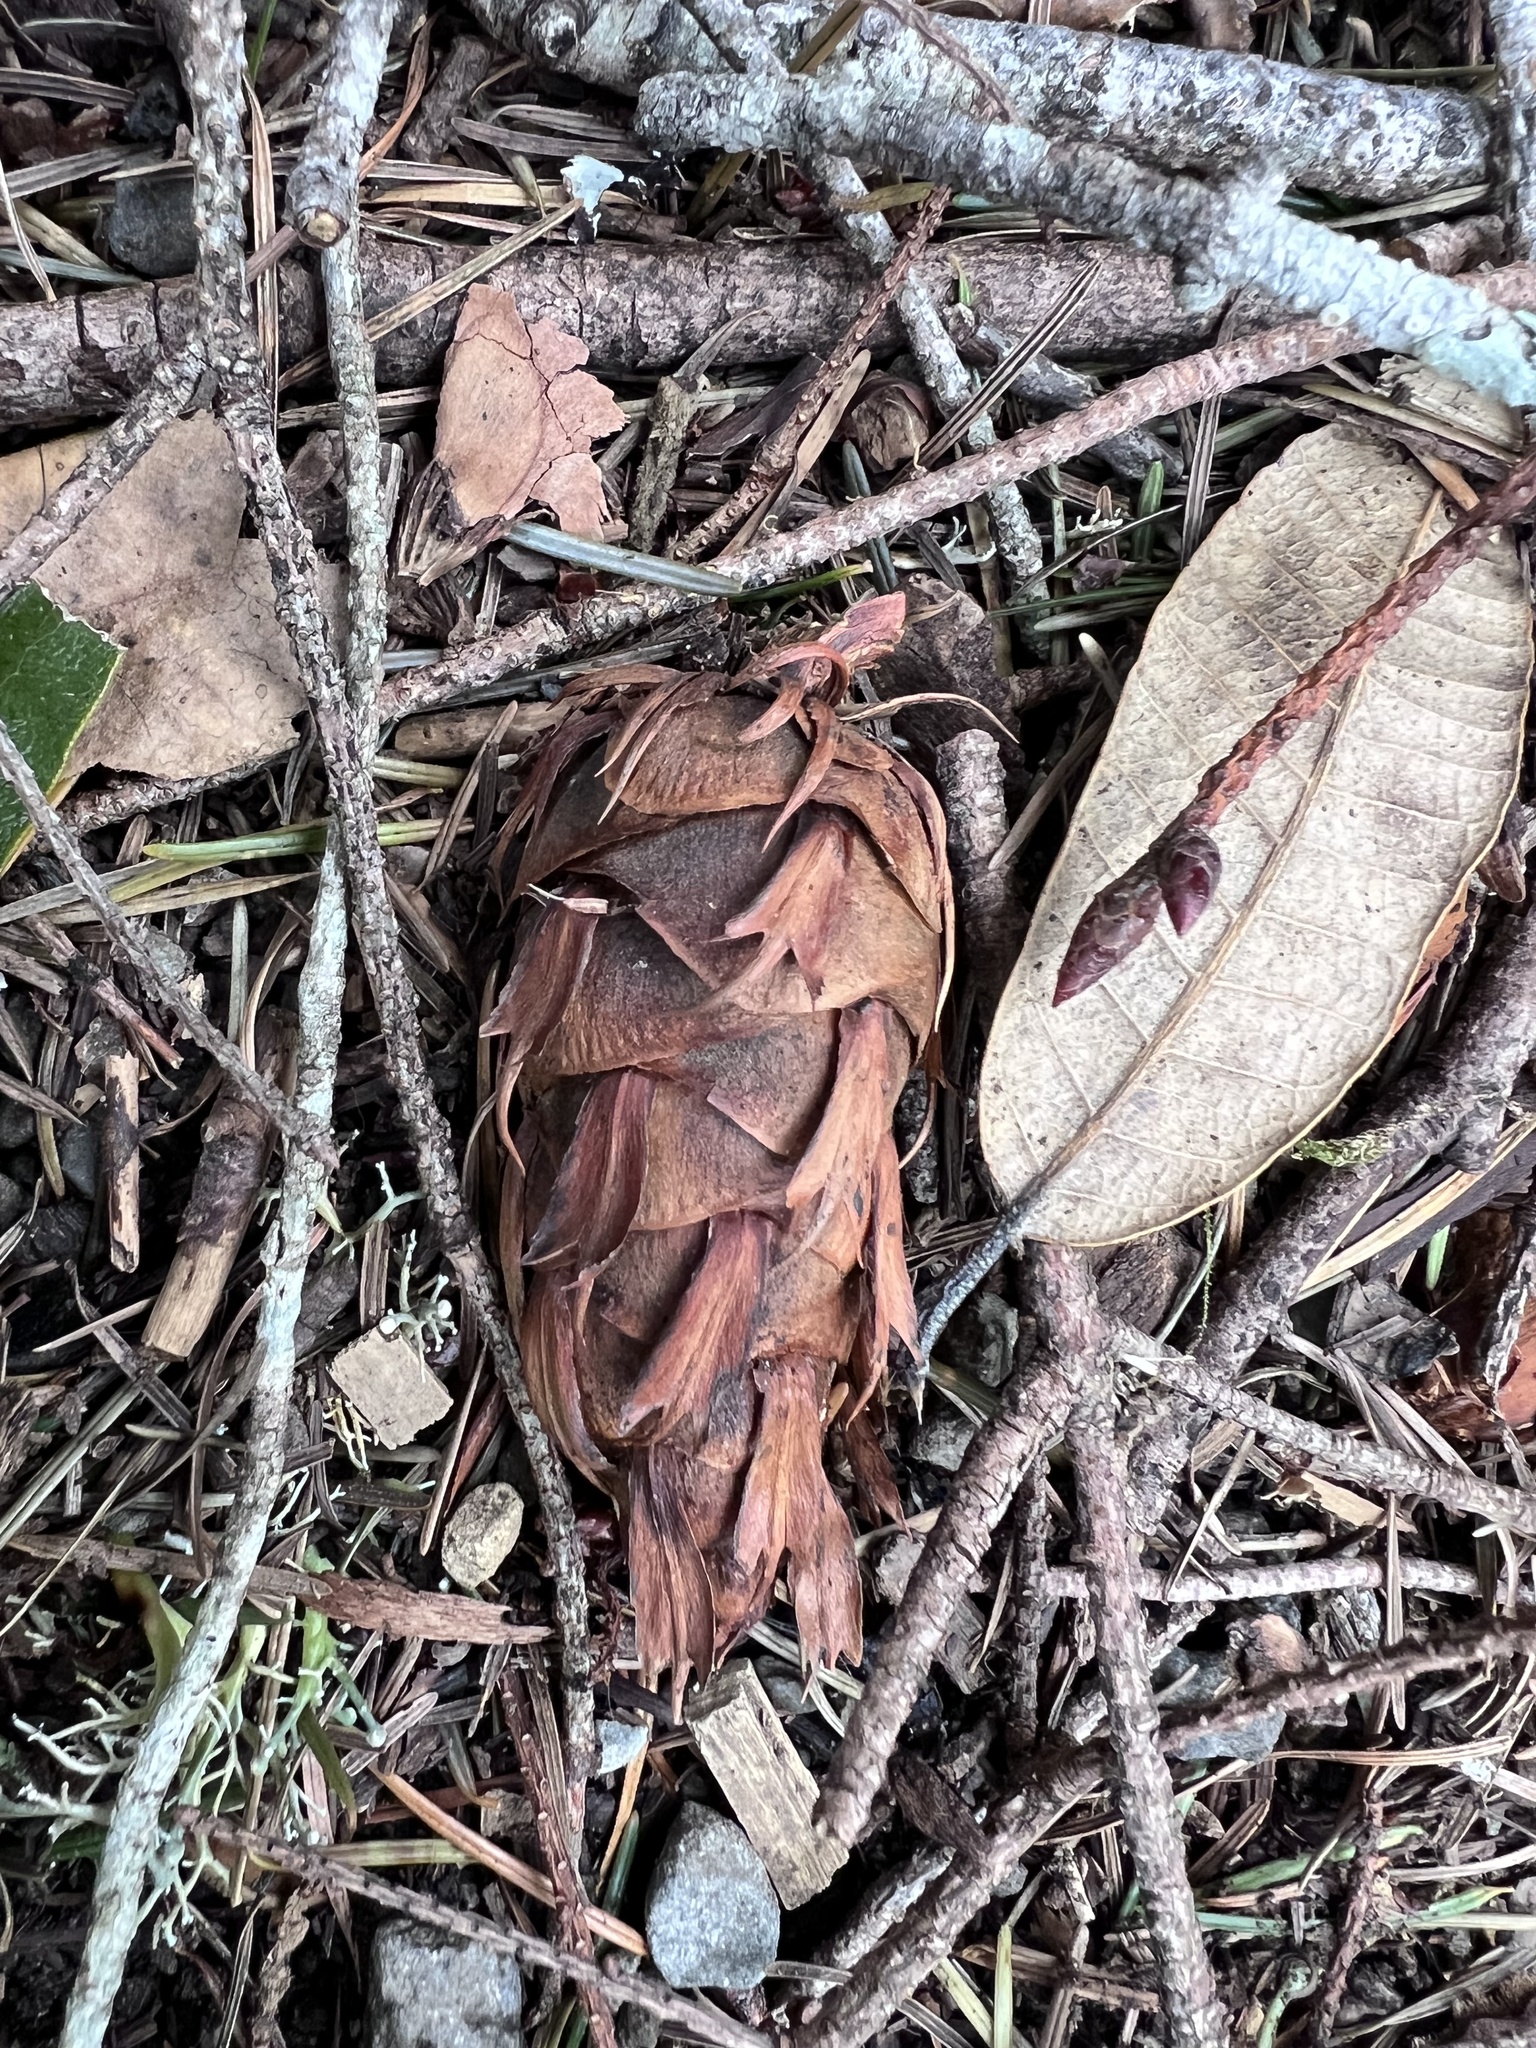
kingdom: Plantae
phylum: Tracheophyta
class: Pinopsida
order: Pinales
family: Pinaceae
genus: Pseudotsuga
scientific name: Pseudotsuga menziesii
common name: Douglas fir
